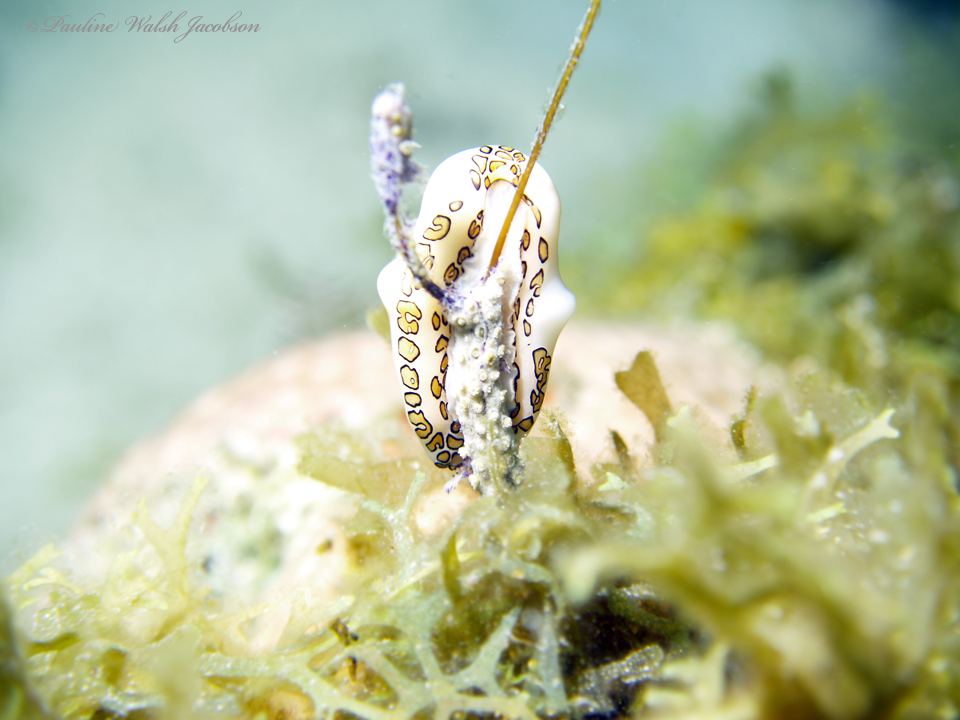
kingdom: Animalia
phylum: Mollusca
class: Gastropoda
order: Littorinimorpha
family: Ovulidae
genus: Cyphoma
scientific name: Cyphoma gibbosum
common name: Flamingo tongue
